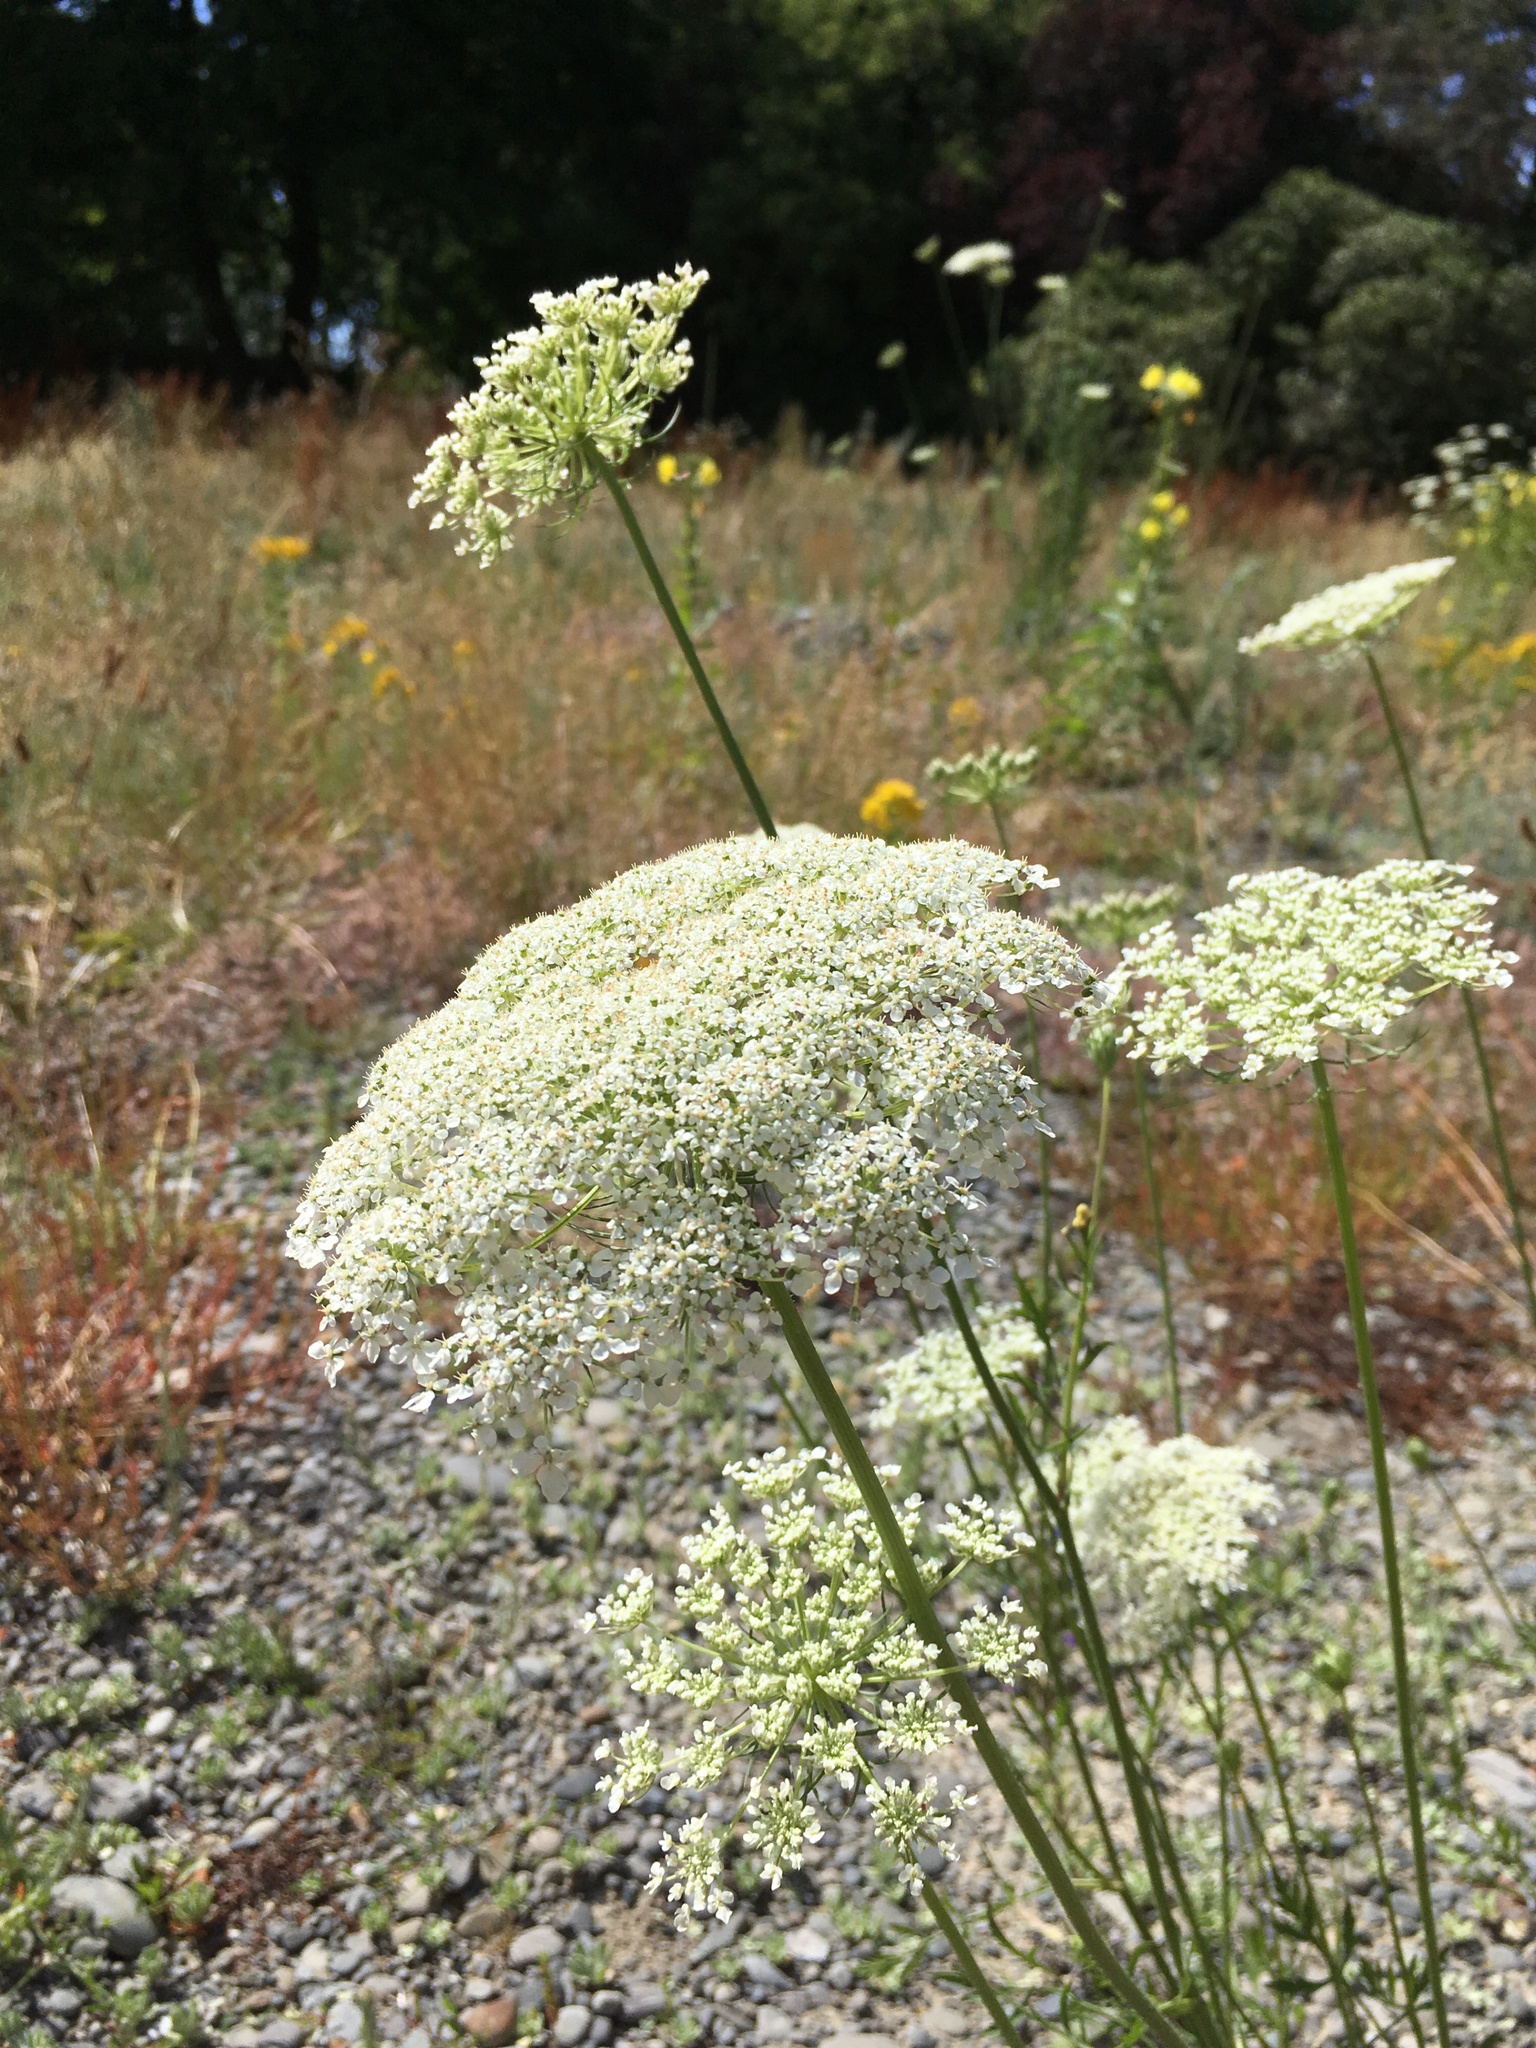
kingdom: Plantae
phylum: Tracheophyta
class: Magnoliopsida
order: Apiales
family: Apiaceae
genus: Daucus
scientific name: Daucus carota
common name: Wild carrot
